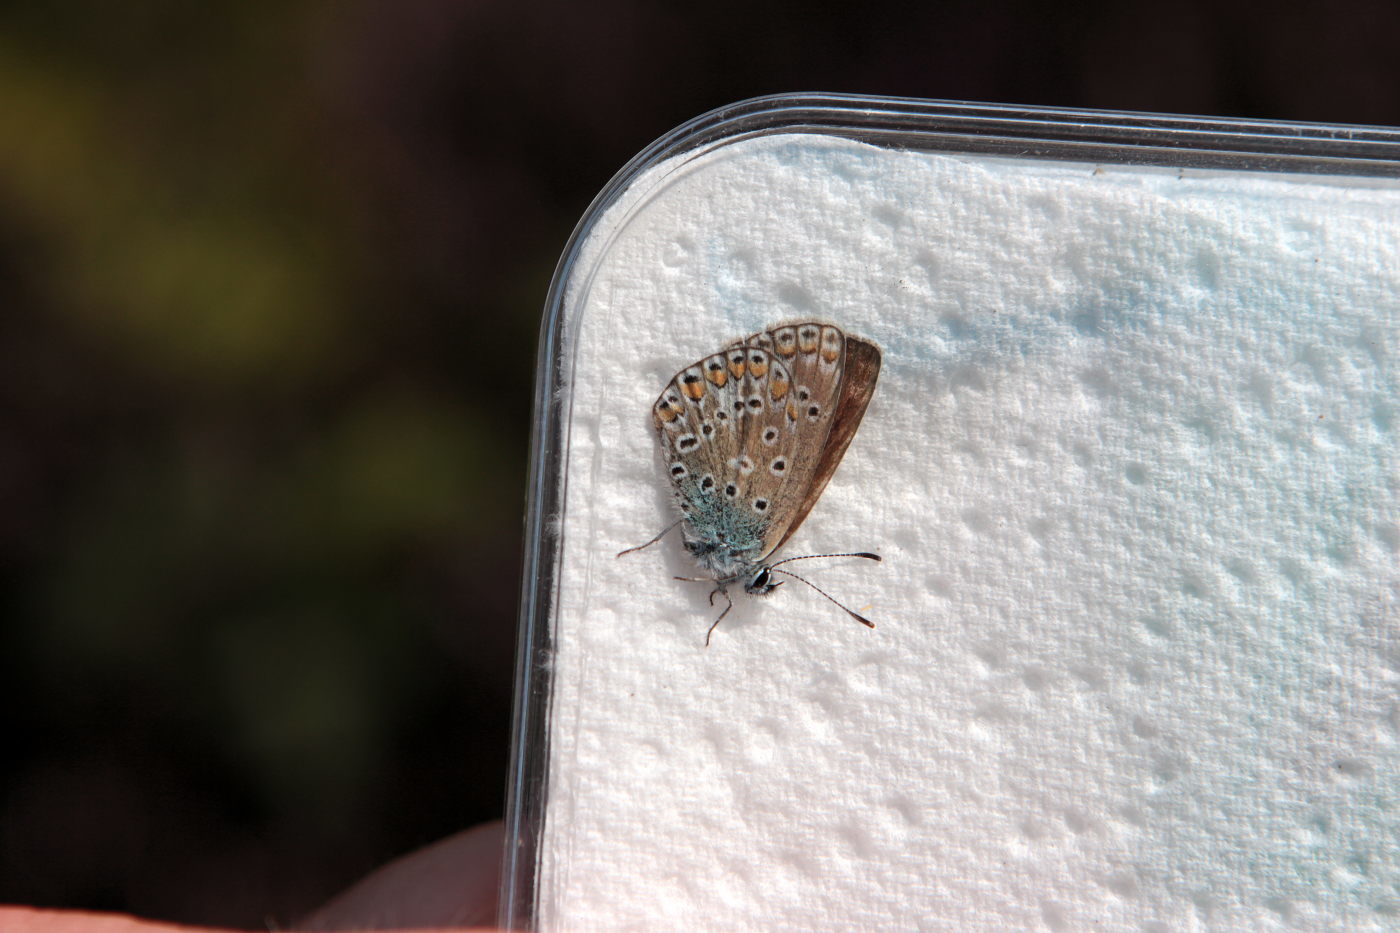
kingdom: Animalia
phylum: Arthropoda
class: Insecta
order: Lepidoptera
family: Lycaenidae
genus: Polyommatus
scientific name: Polyommatus icarus
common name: Common blue
